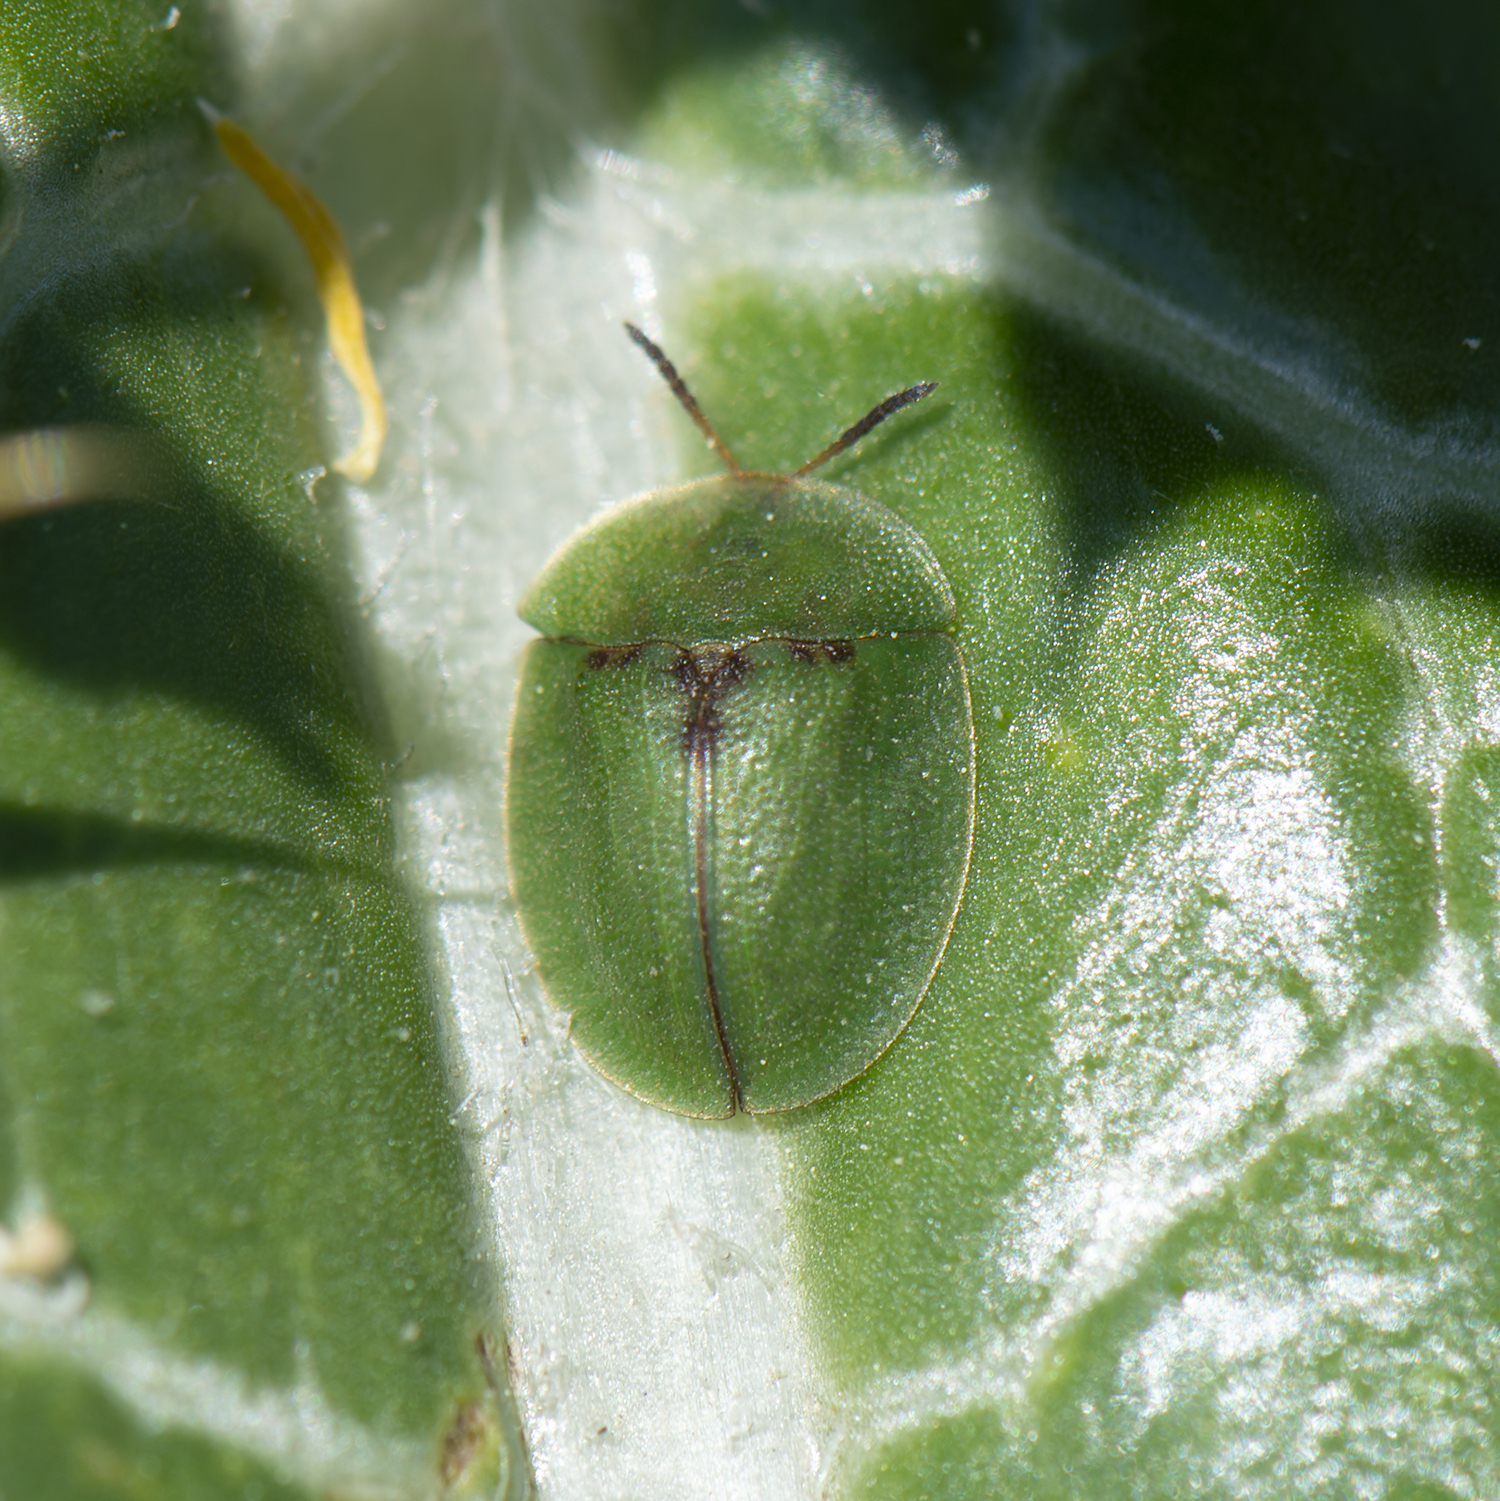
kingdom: Animalia
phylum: Arthropoda
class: Insecta
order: Coleoptera
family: Chrysomelidae
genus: Cassida
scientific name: Cassida rubiginosa
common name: Thistle tortoise beetle
